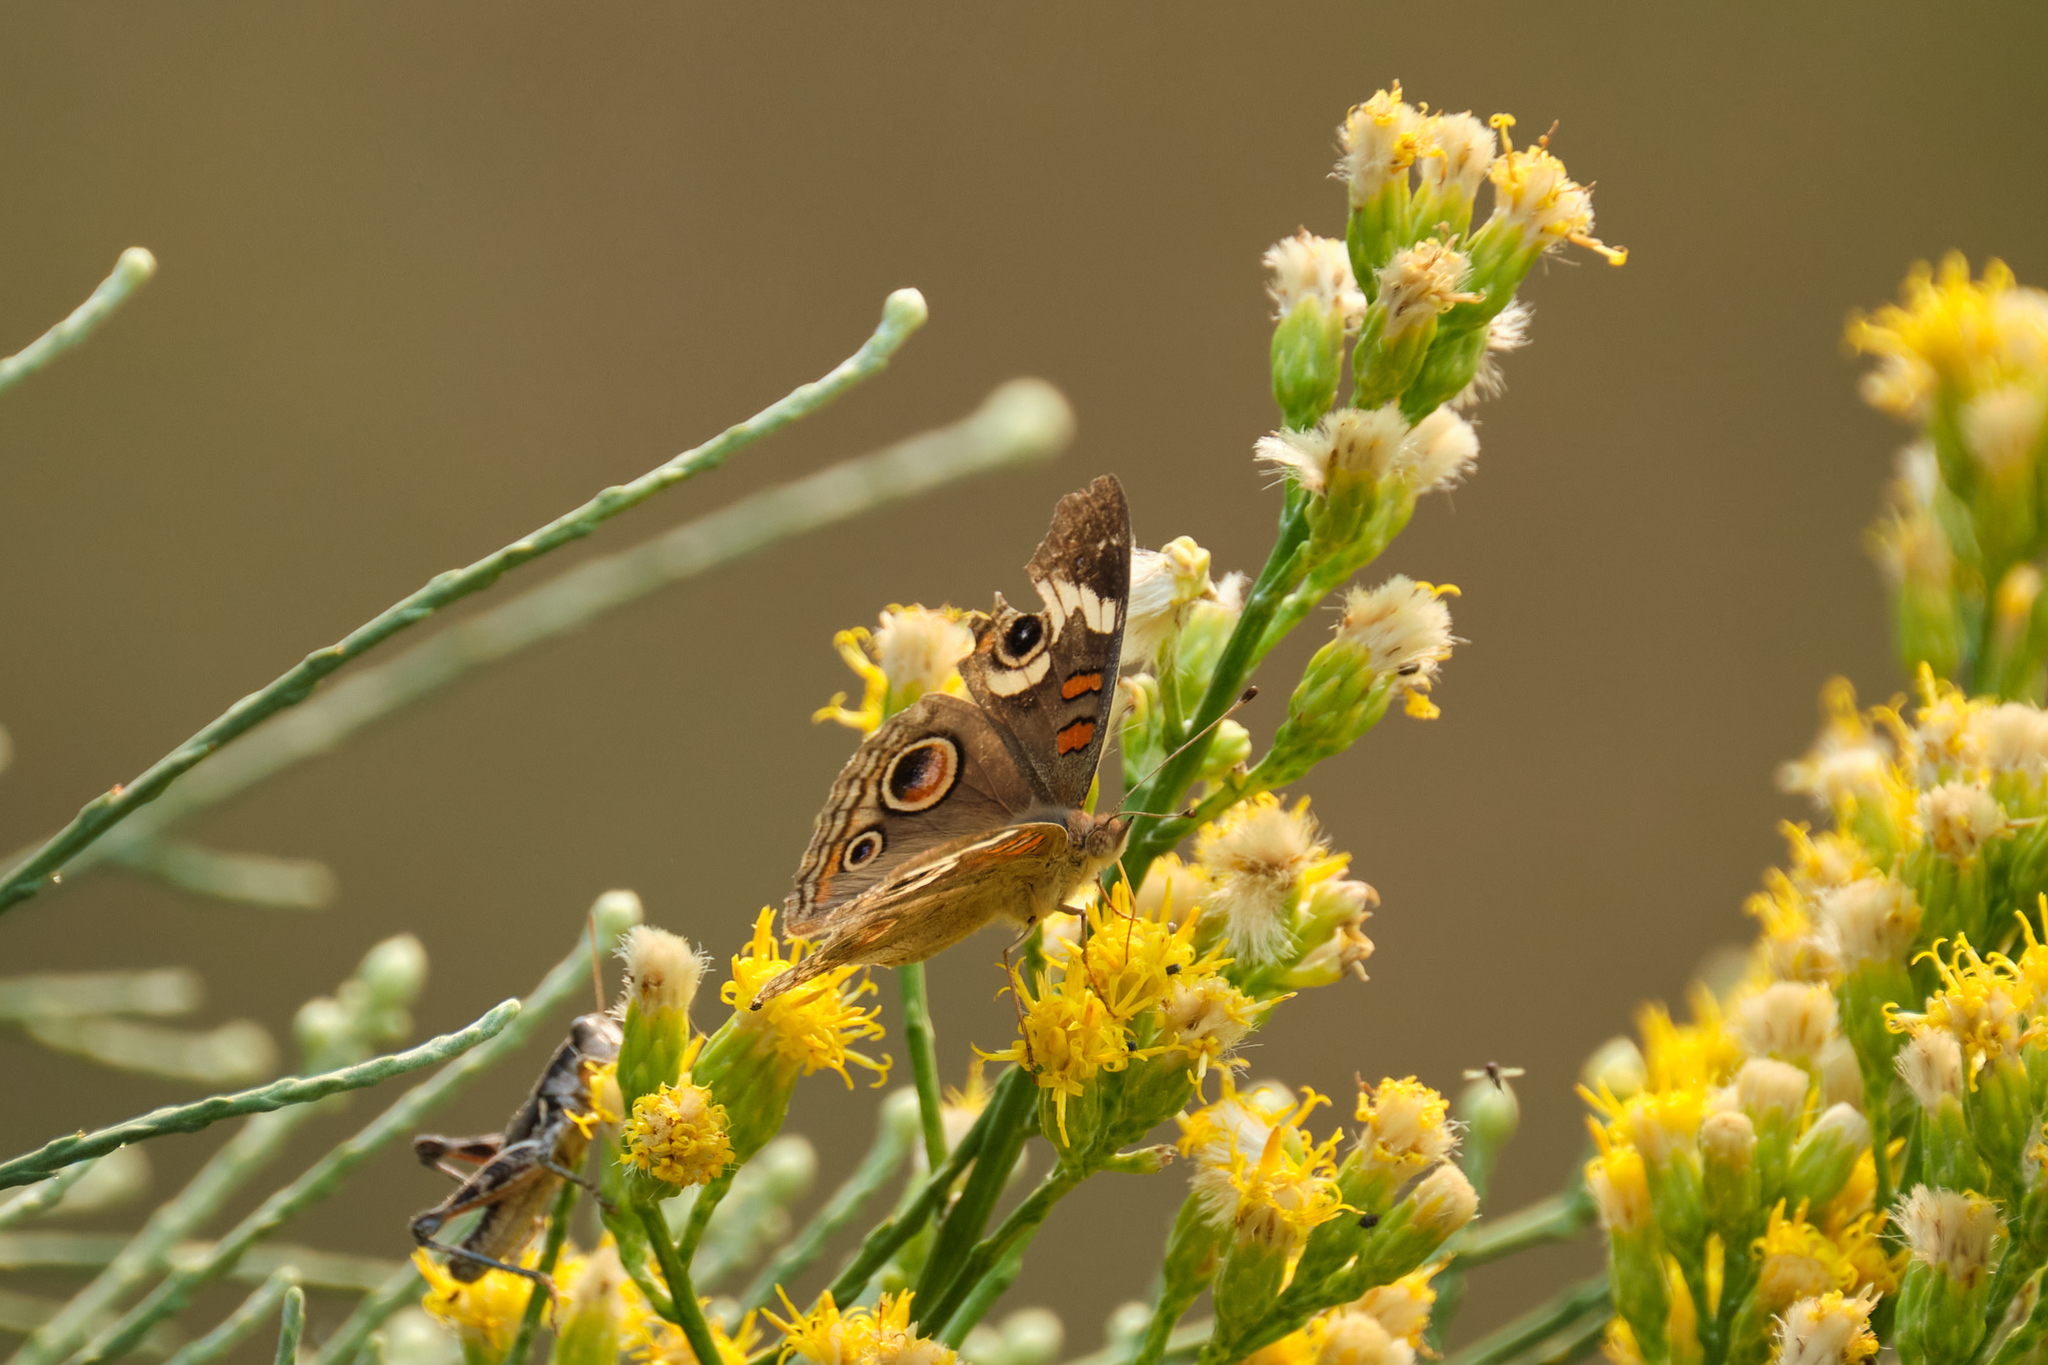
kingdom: Animalia
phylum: Arthropoda
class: Insecta
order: Lepidoptera
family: Nymphalidae
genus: Junonia
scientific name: Junonia grisea
